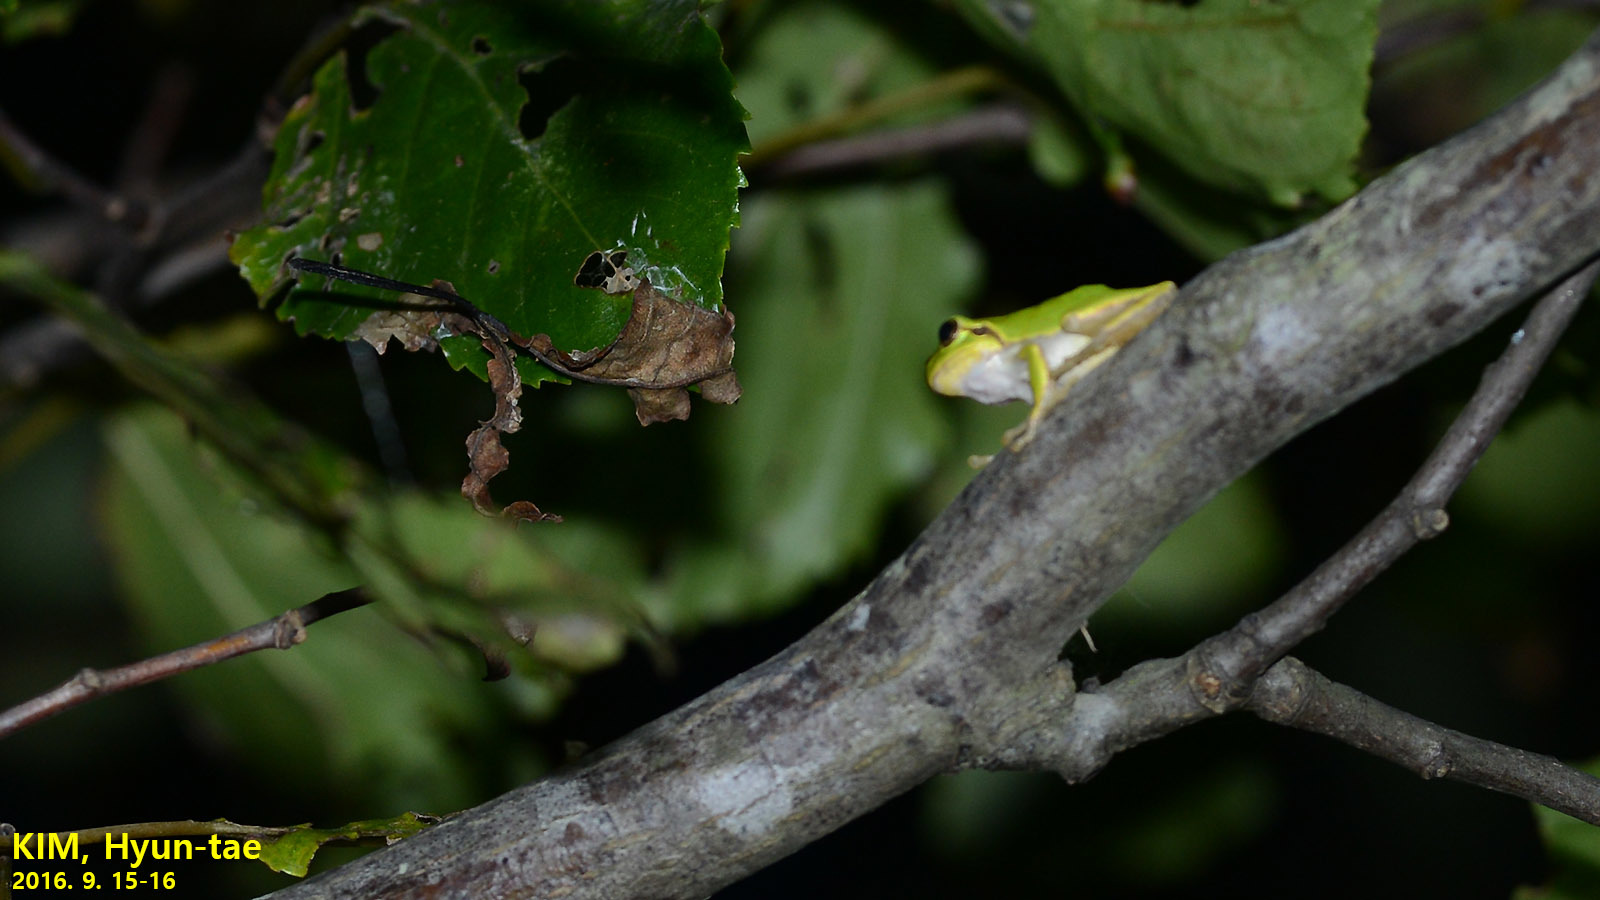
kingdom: Animalia
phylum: Chordata
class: Amphibia
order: Anura
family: Hylidae
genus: Dryophytes
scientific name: Dryophytes japonicus
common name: Japanese treefrog
